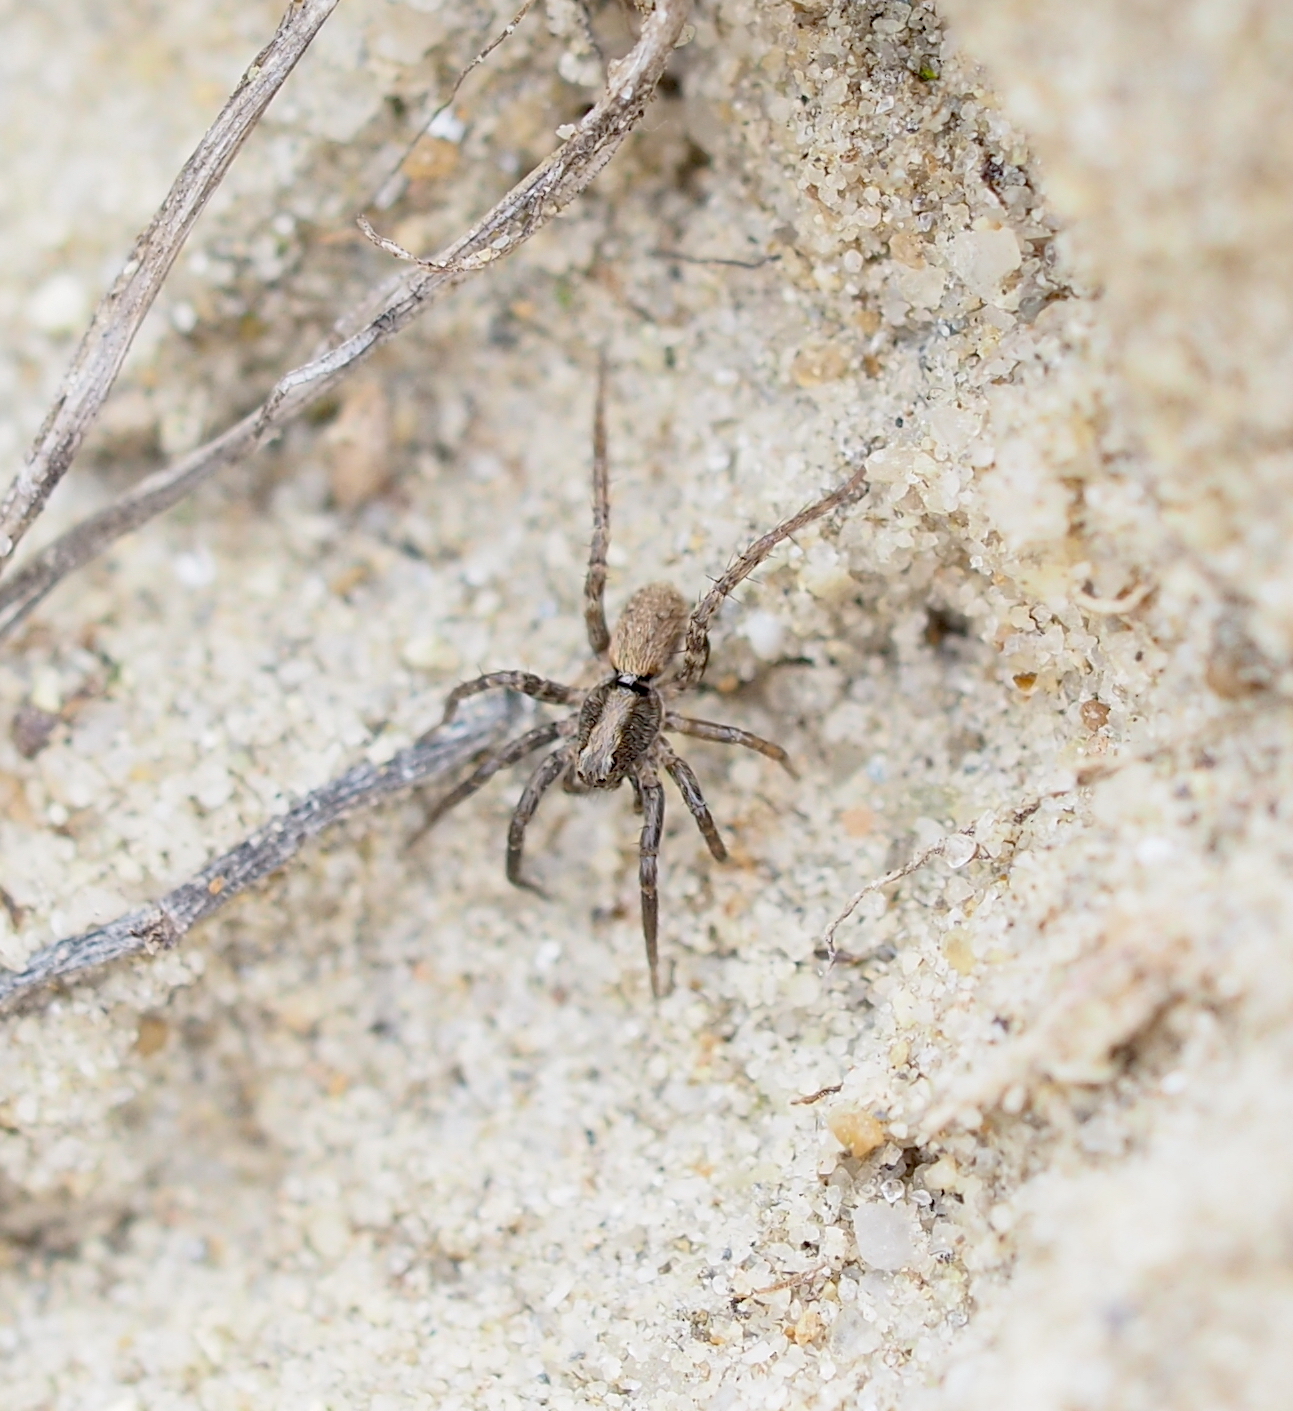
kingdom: Animalia
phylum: Arthropoda
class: Arachnida
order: Araneae
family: Lycosidae
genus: Xerolycosa
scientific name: Xerolycosa miniata
